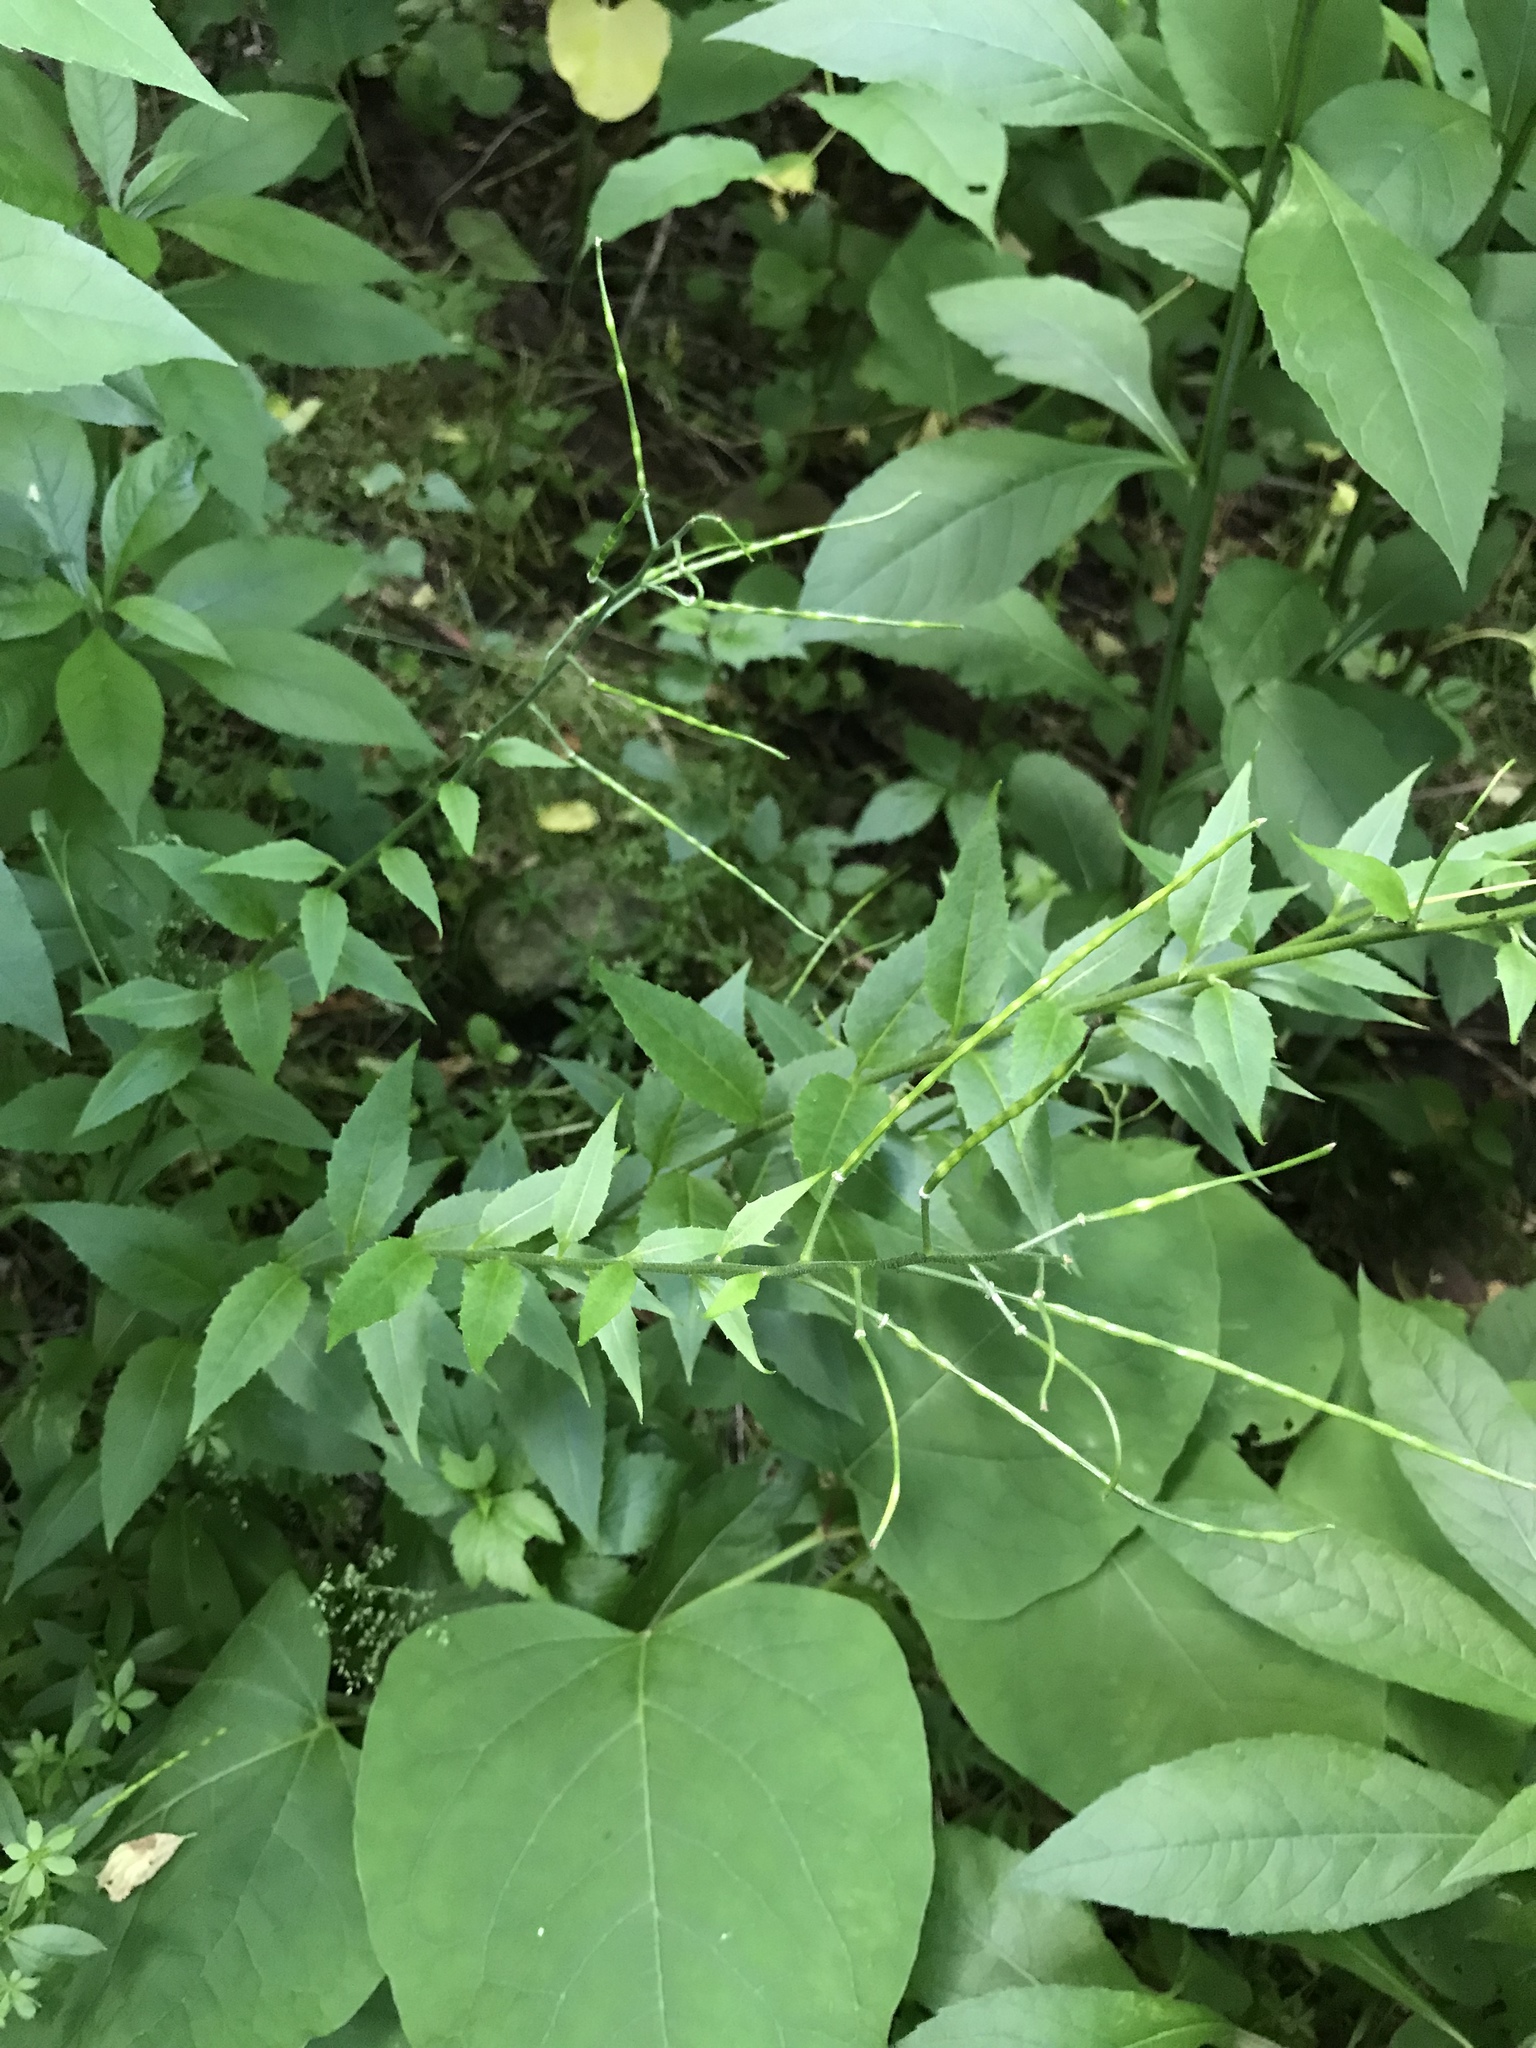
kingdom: Plantae
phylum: Tracheophyta
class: Magnoliopsida
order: Brassicales
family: Brassicaceae
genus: Hesperis
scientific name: Hesperis matronalis
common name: Dame's-violet
